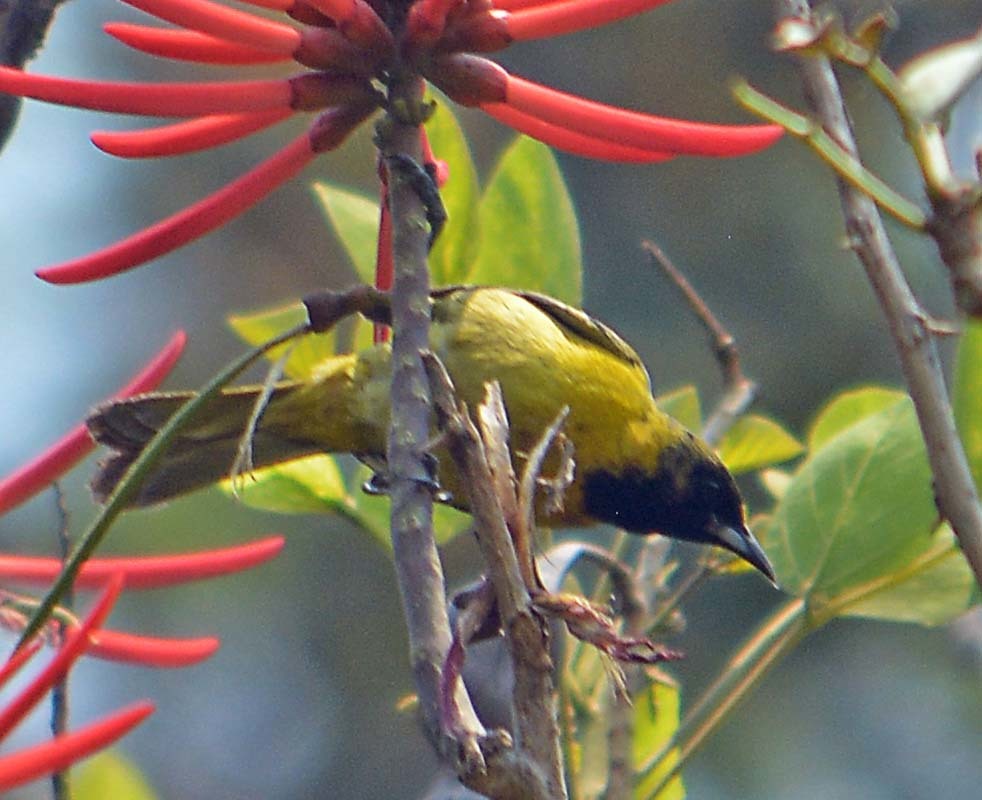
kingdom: Animalia
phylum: Chordata
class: Aves
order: Passeriformes
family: Icteridae
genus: Icterus
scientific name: Icterus spurius
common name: Orchard oriole
